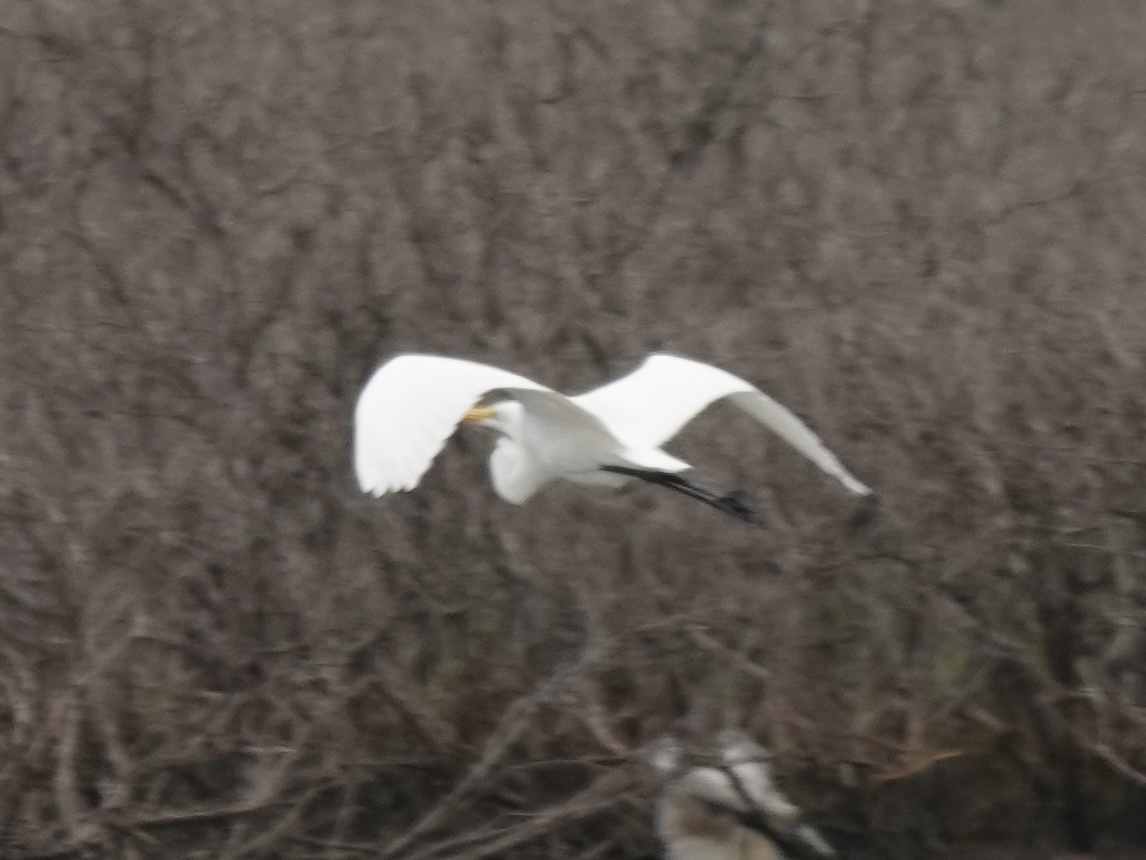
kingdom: Animalia
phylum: Chordata
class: Aves
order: Pelecaniformes
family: Ardeidae
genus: Ardea
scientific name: Ardea alba
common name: Great egret
